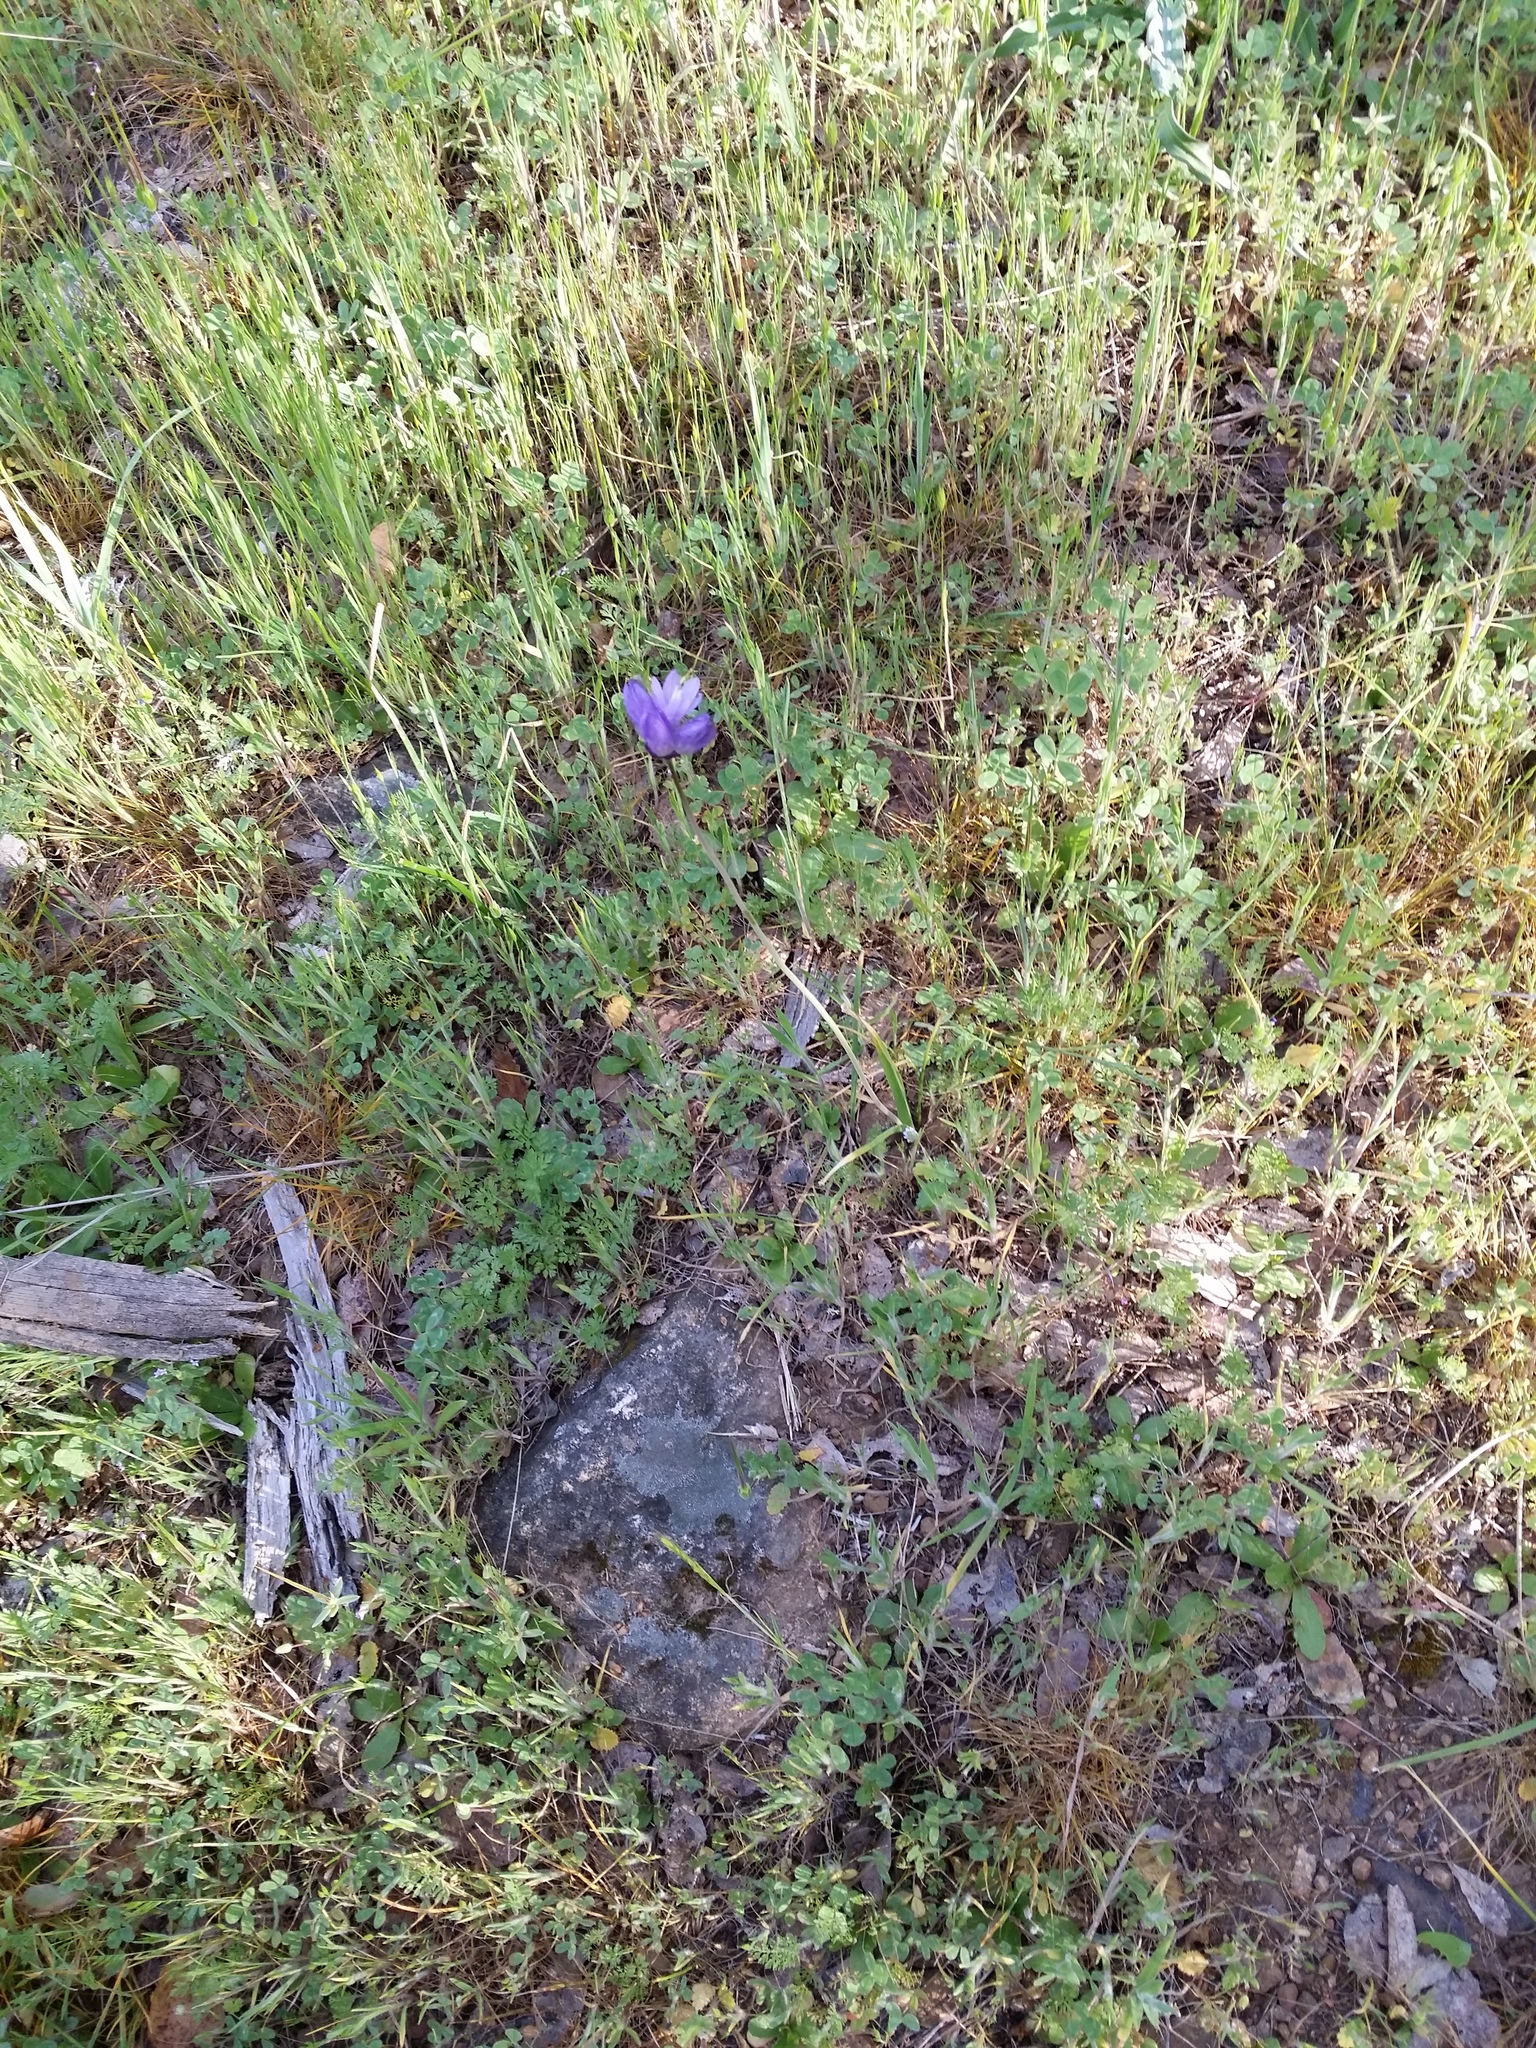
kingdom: Plantae
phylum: Tracheophyta
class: Liliopsida
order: Asparagales
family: Asparagaceae
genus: Dipterostemon
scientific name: Dipterostemon capitatus
